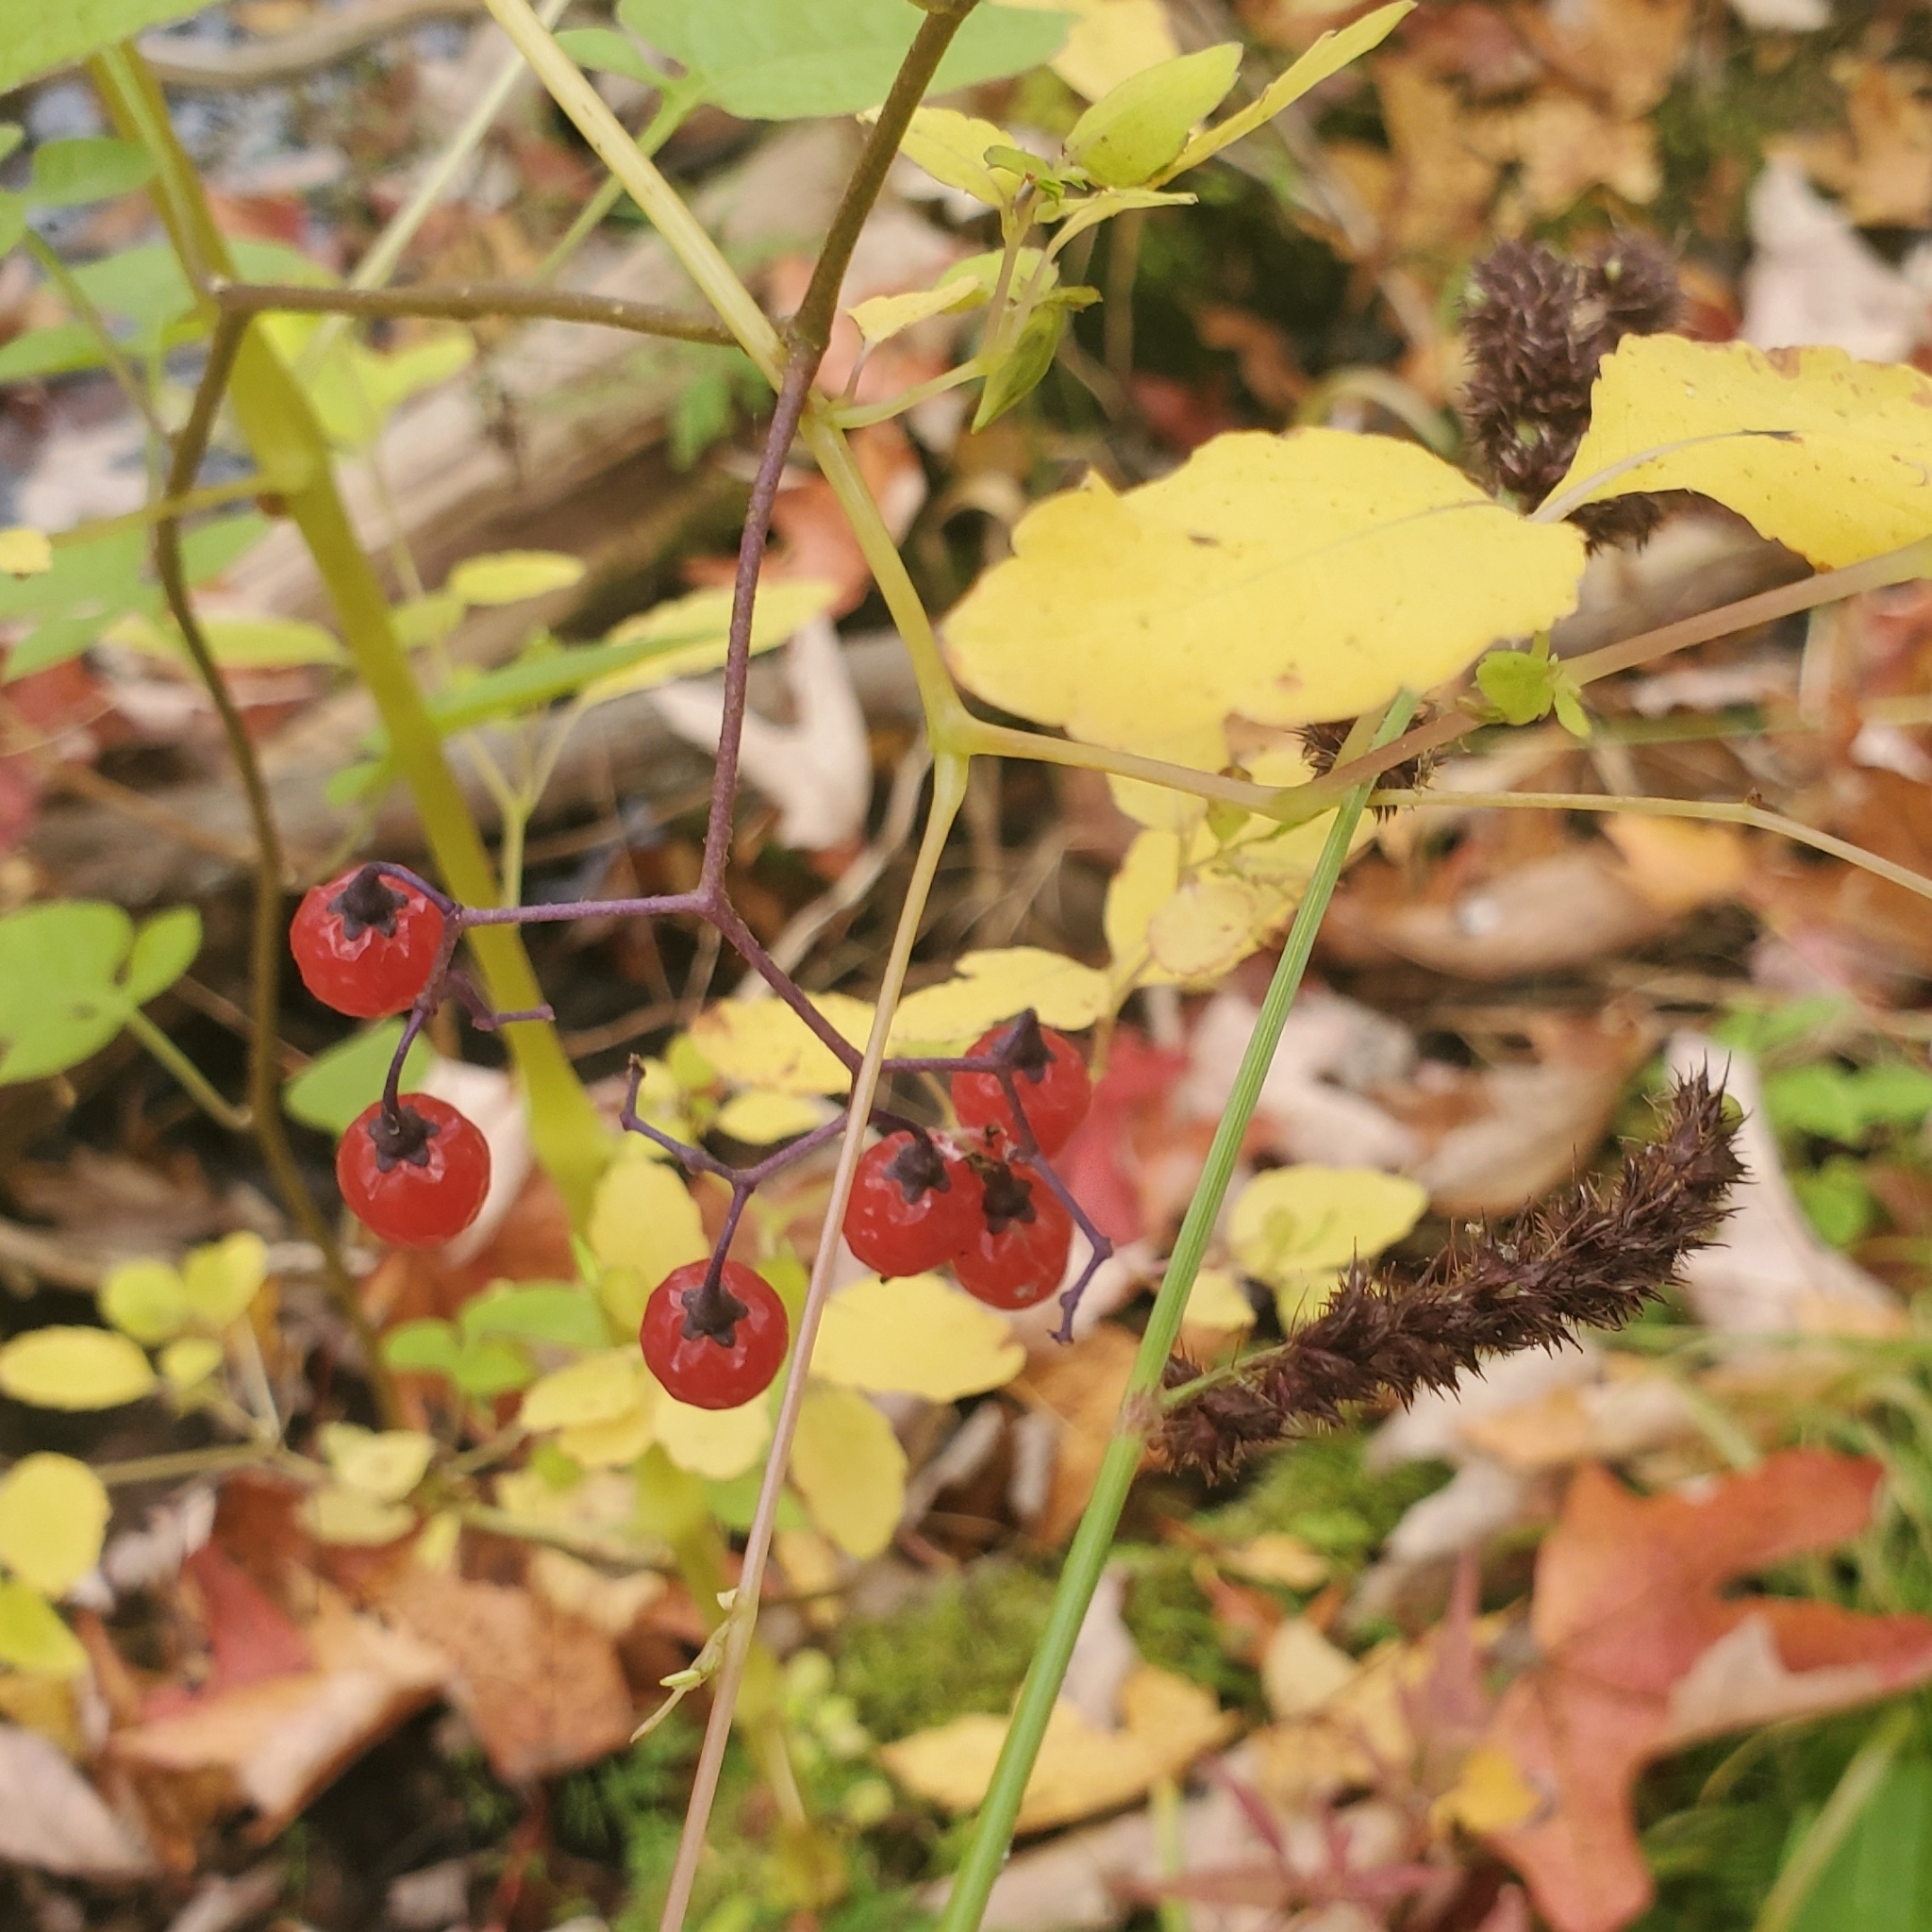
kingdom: Plantae
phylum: Tracheophyta
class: Magnoliopsida
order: Solanales
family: Solanaceae
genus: Solanum
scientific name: Solanum dulcamara
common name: Climbing nightshade
